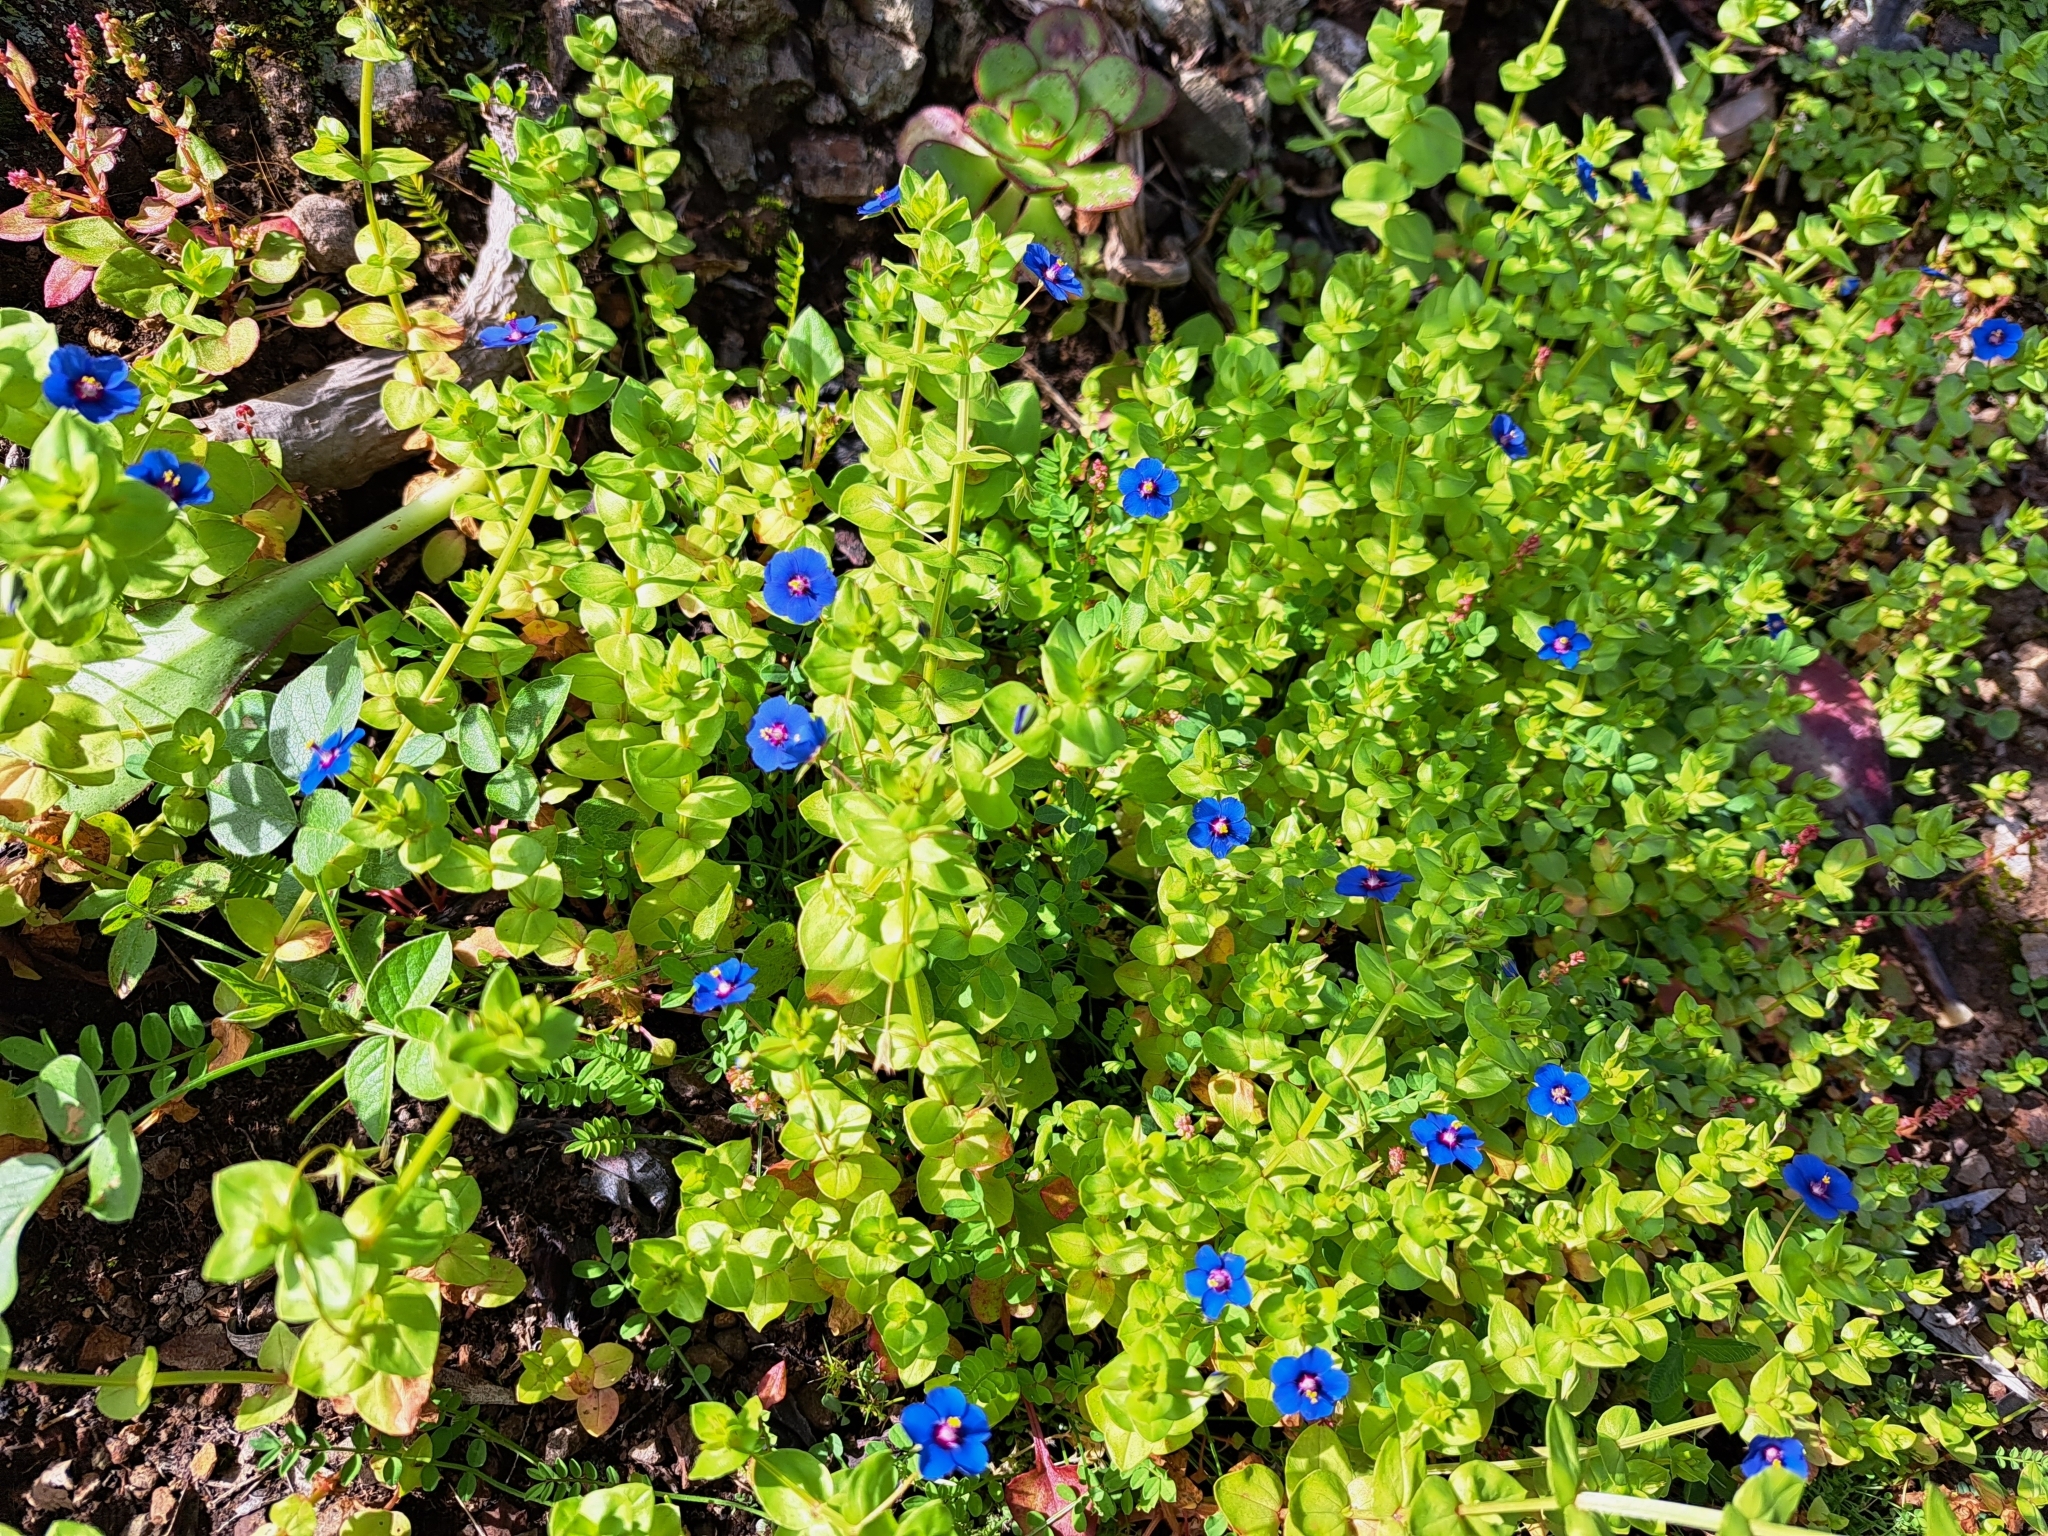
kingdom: Plantae
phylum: Tracheophyta
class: Magnoliopsida
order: Ericales
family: Primulaceae
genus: Lysimachia
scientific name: Lysimachia loeflingii
